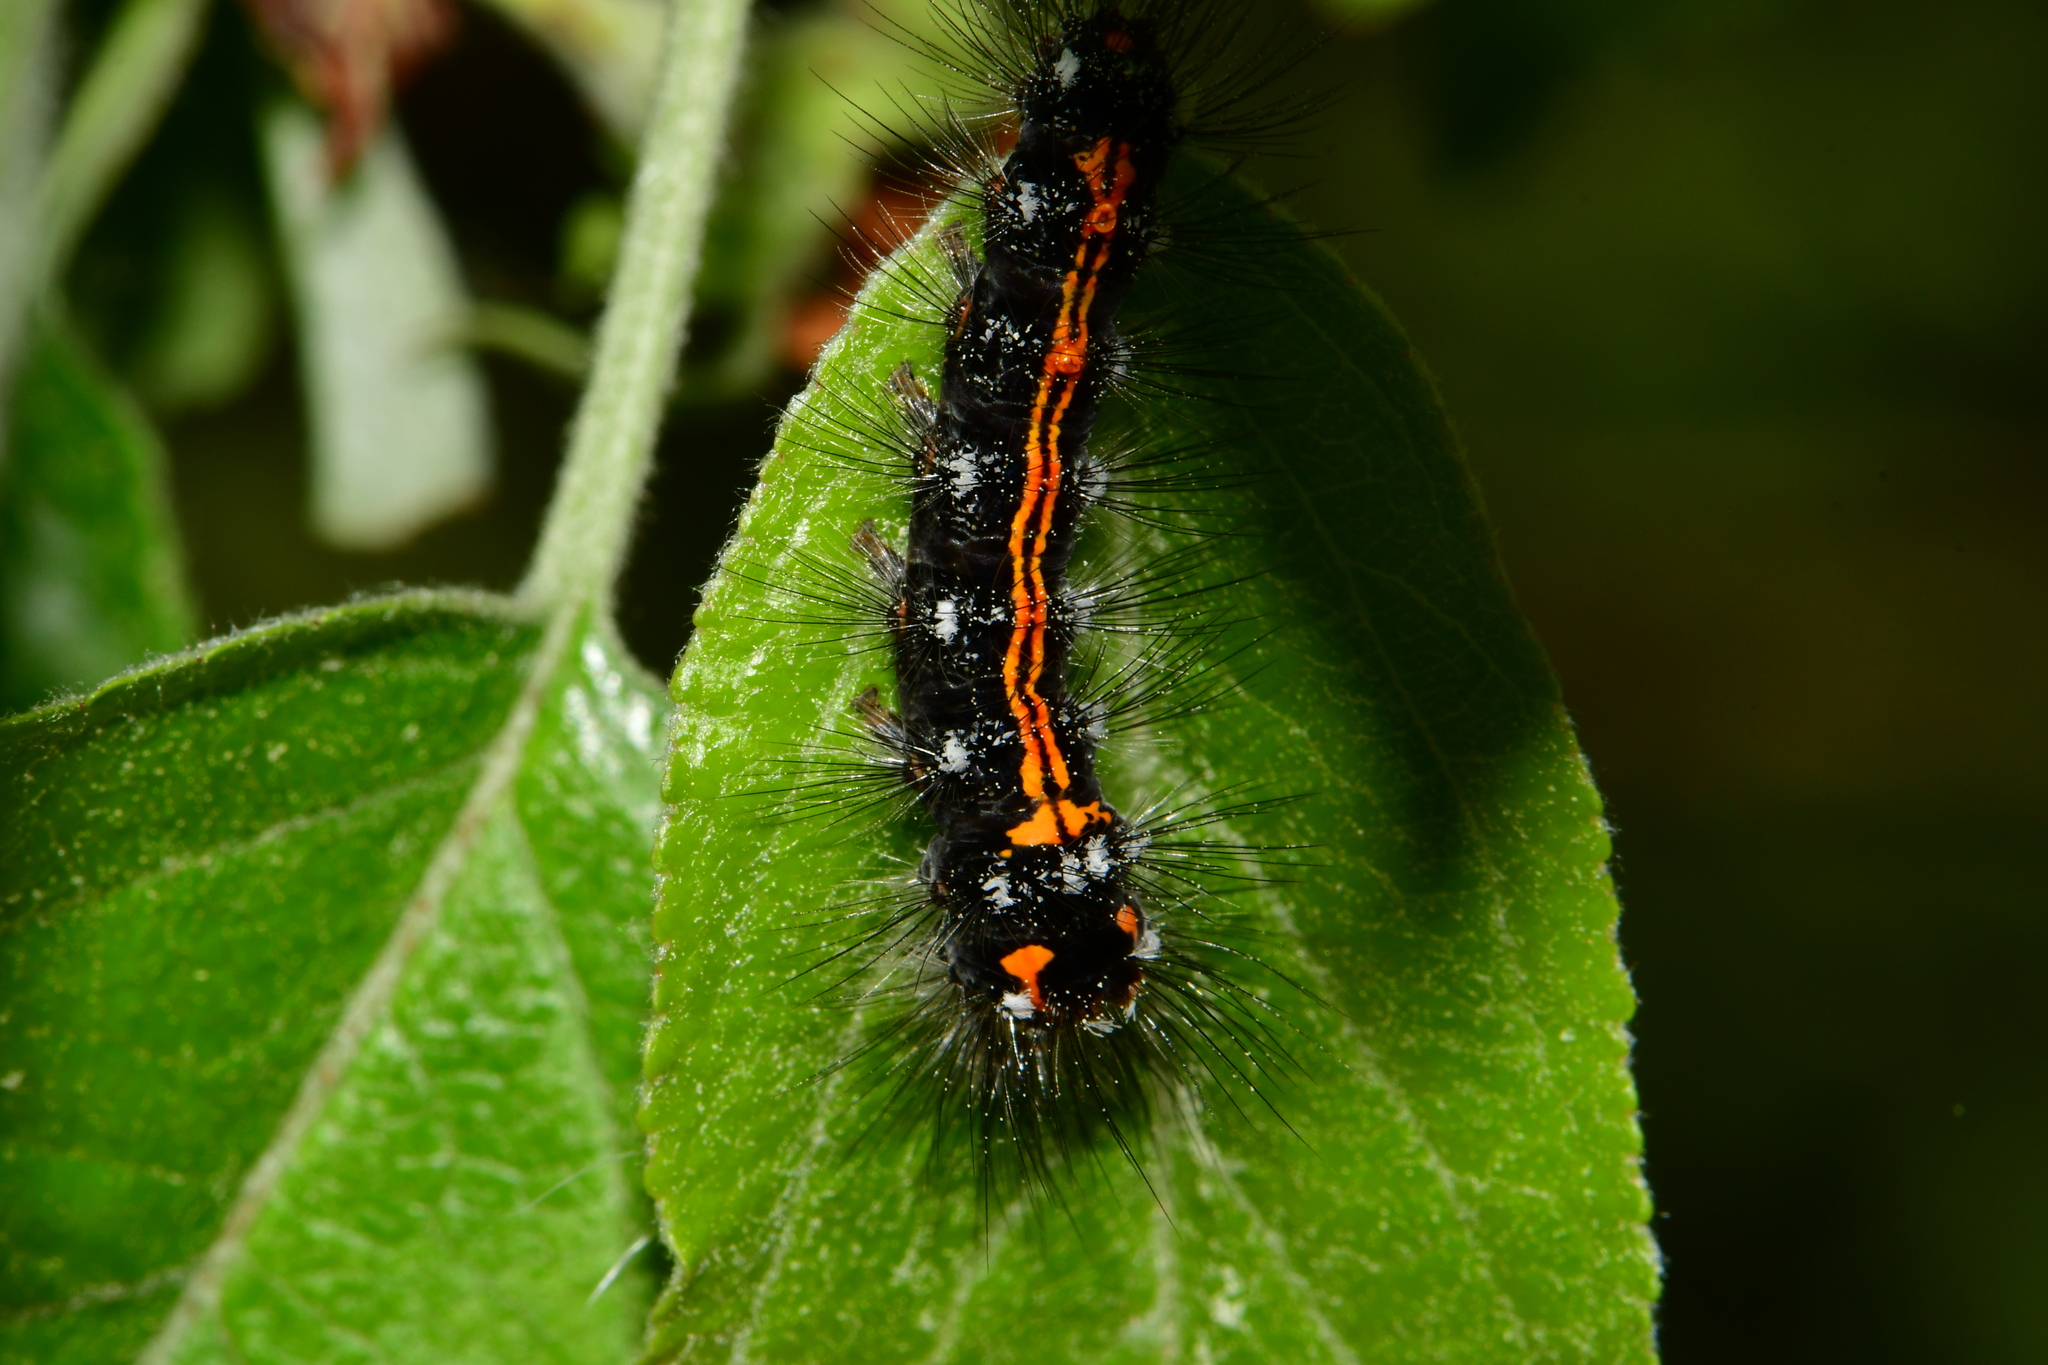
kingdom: Animalia
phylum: Arthropoda
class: Insecta
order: Lepidoptera
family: Erebidae
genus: Sphrageidus
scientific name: Sphrageidus similis
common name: Yellow-tail
